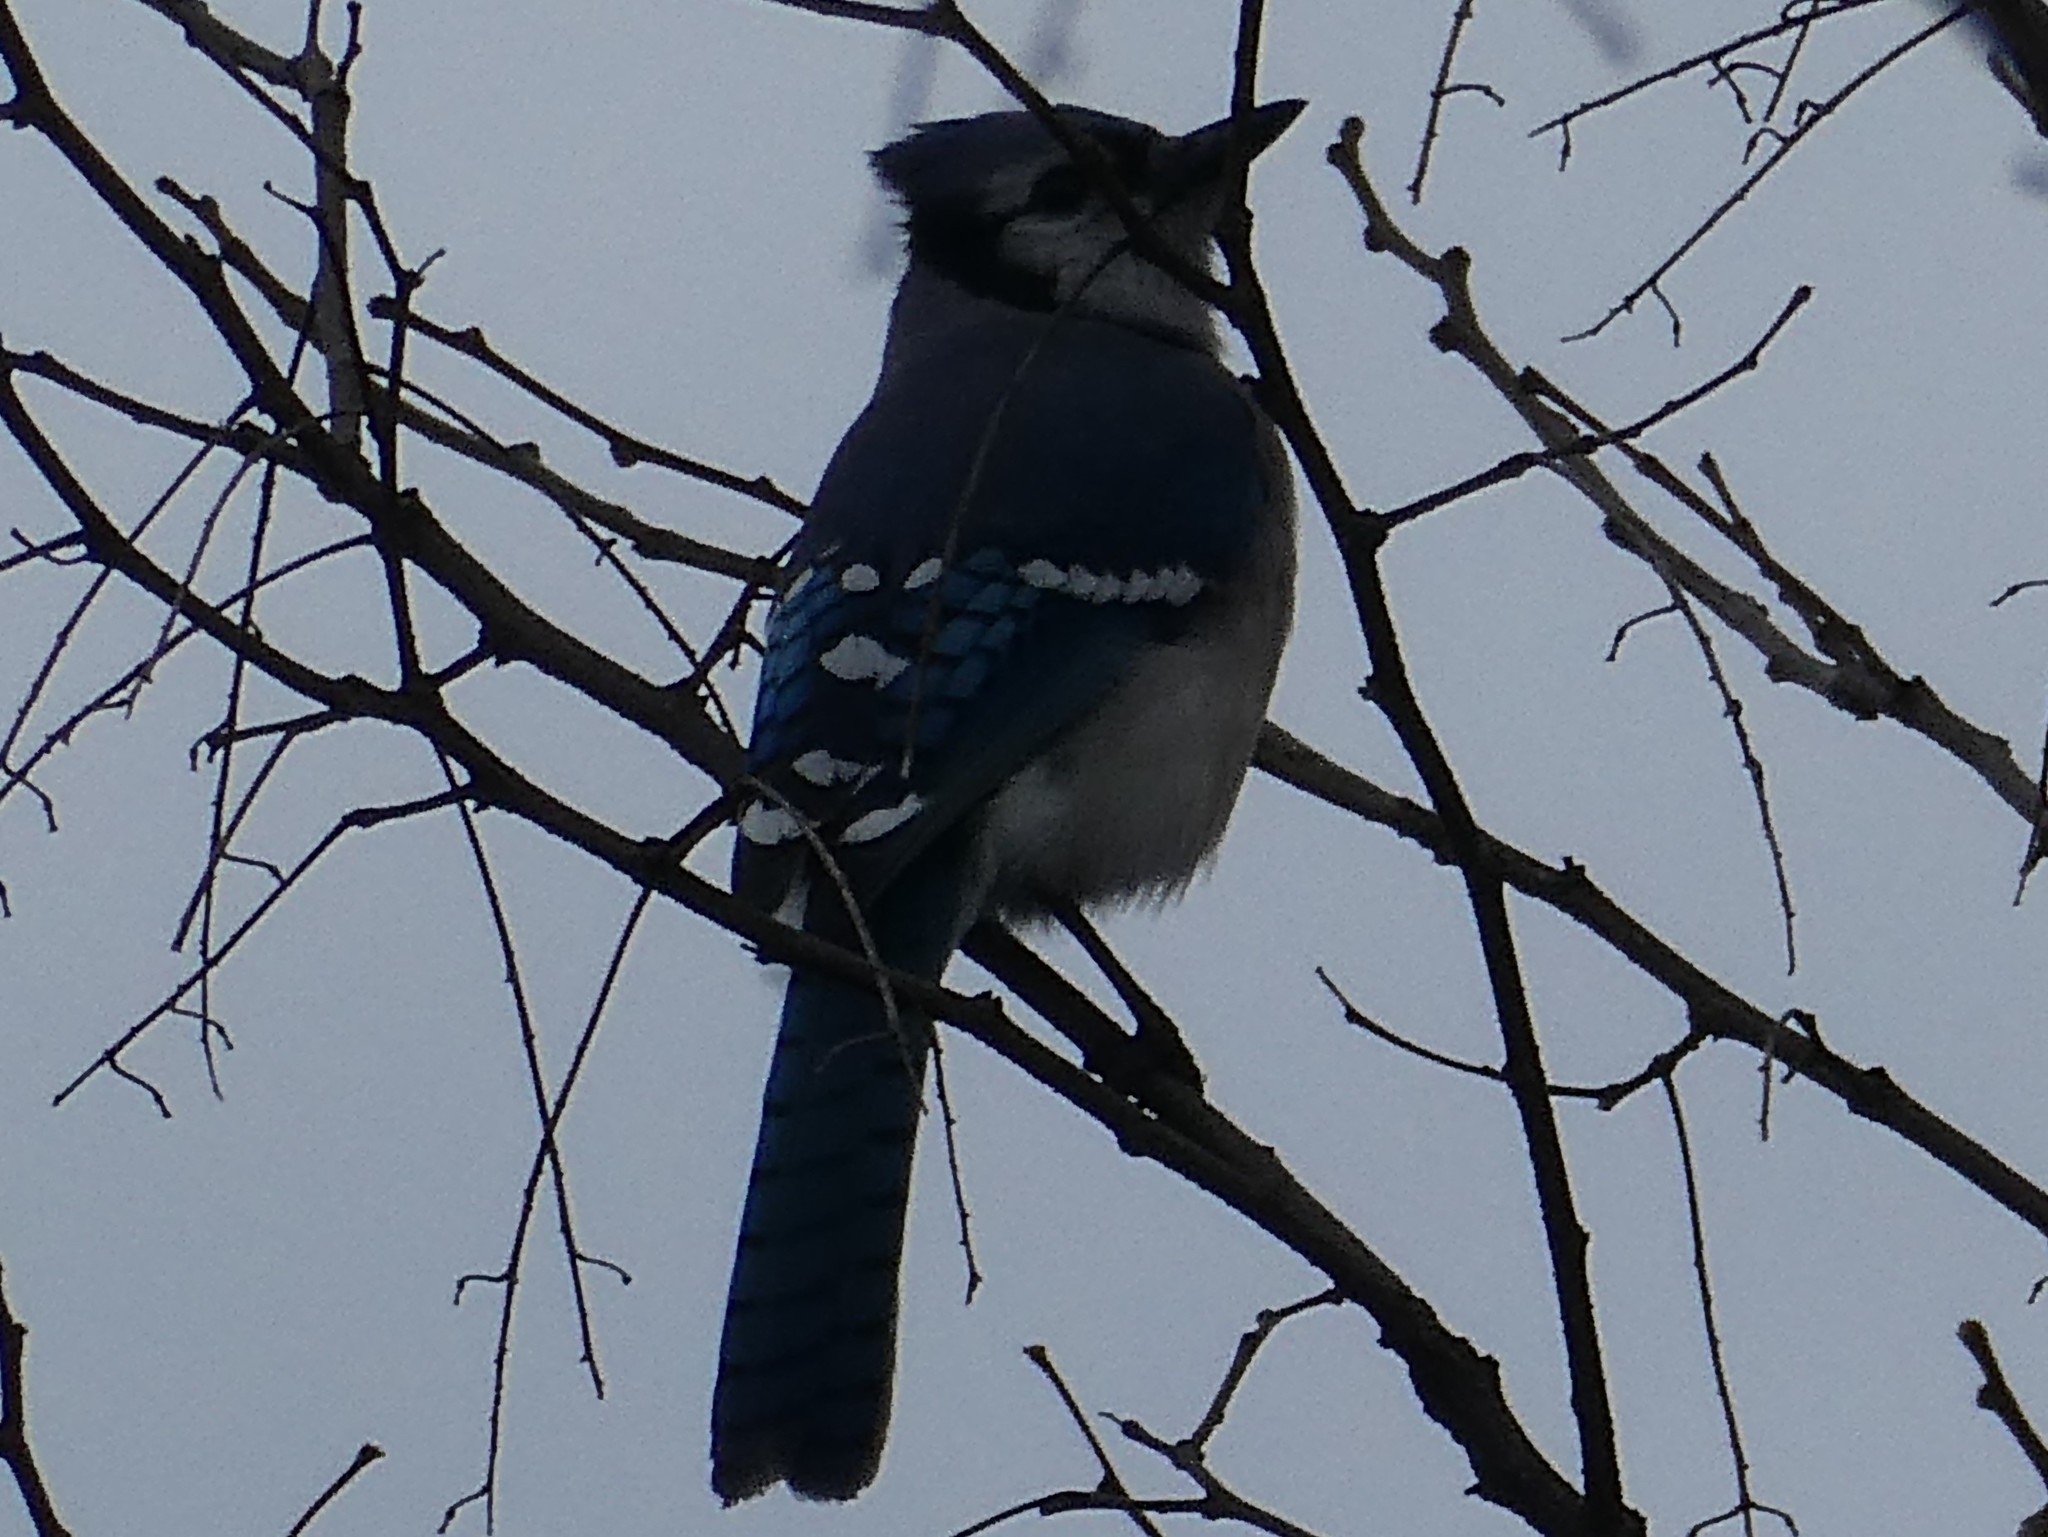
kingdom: Animalia
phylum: Chordata
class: Aves
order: Passeriformes
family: Corvidae
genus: Cyanocitta
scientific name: Cyanocitta cristata
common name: Blue jay
